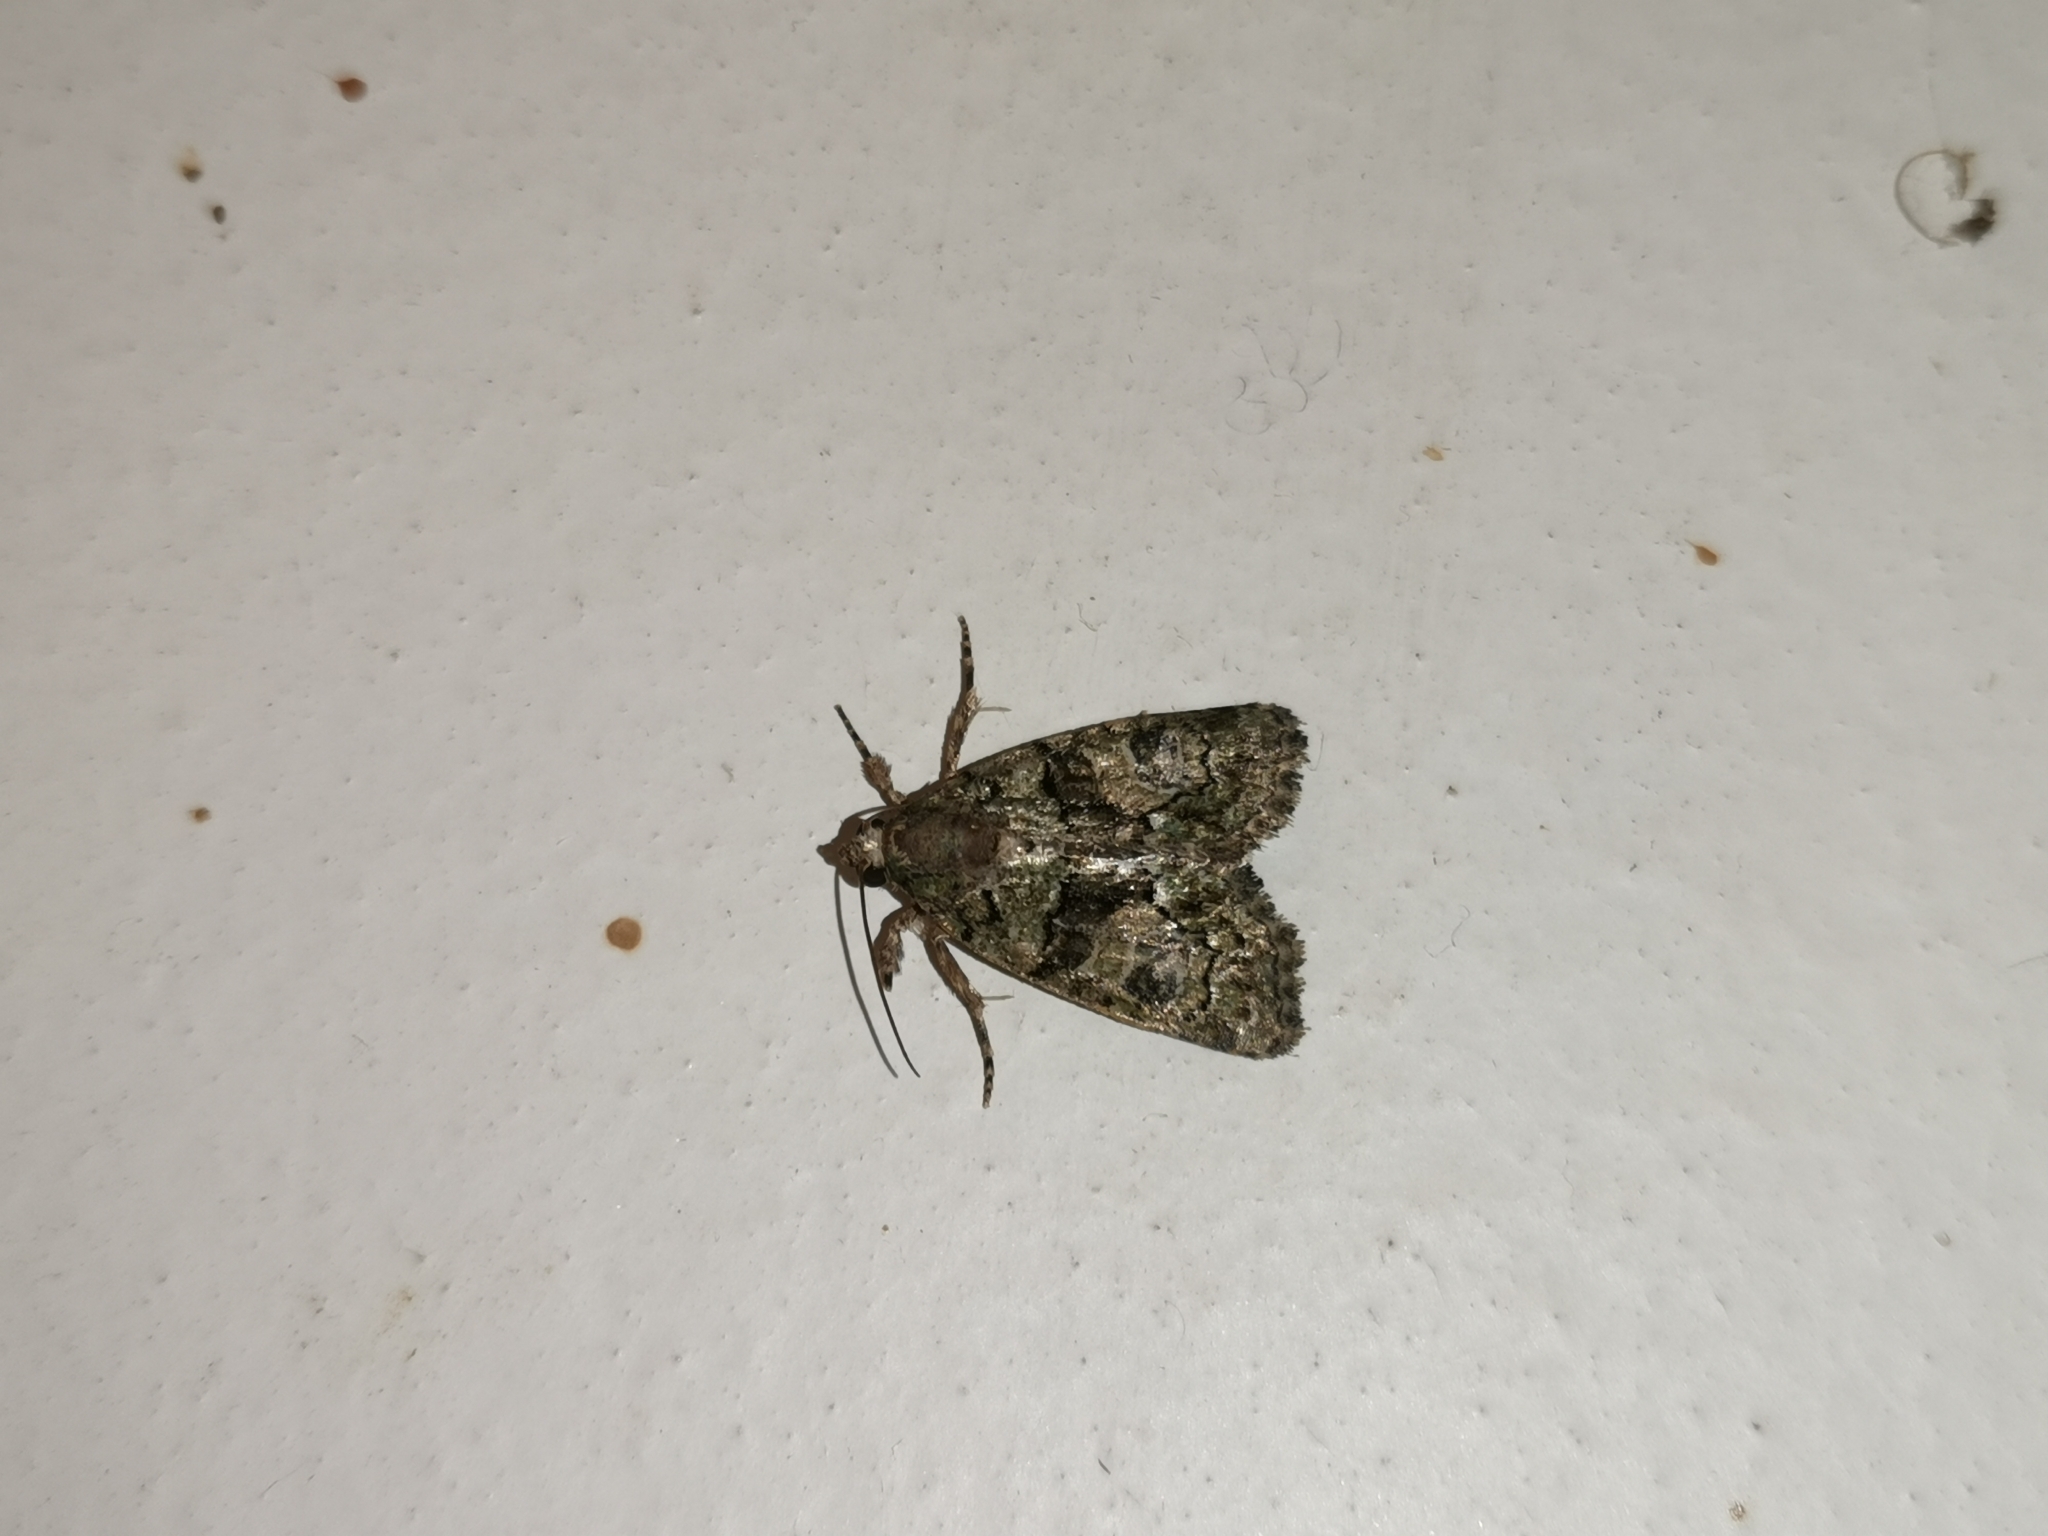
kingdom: Animalia
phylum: Arthropoda
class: Insecta
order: Lepidoptera
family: Noctuidae
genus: Cryphia
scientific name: Cryphia algae
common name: Tree-lichen beauty
